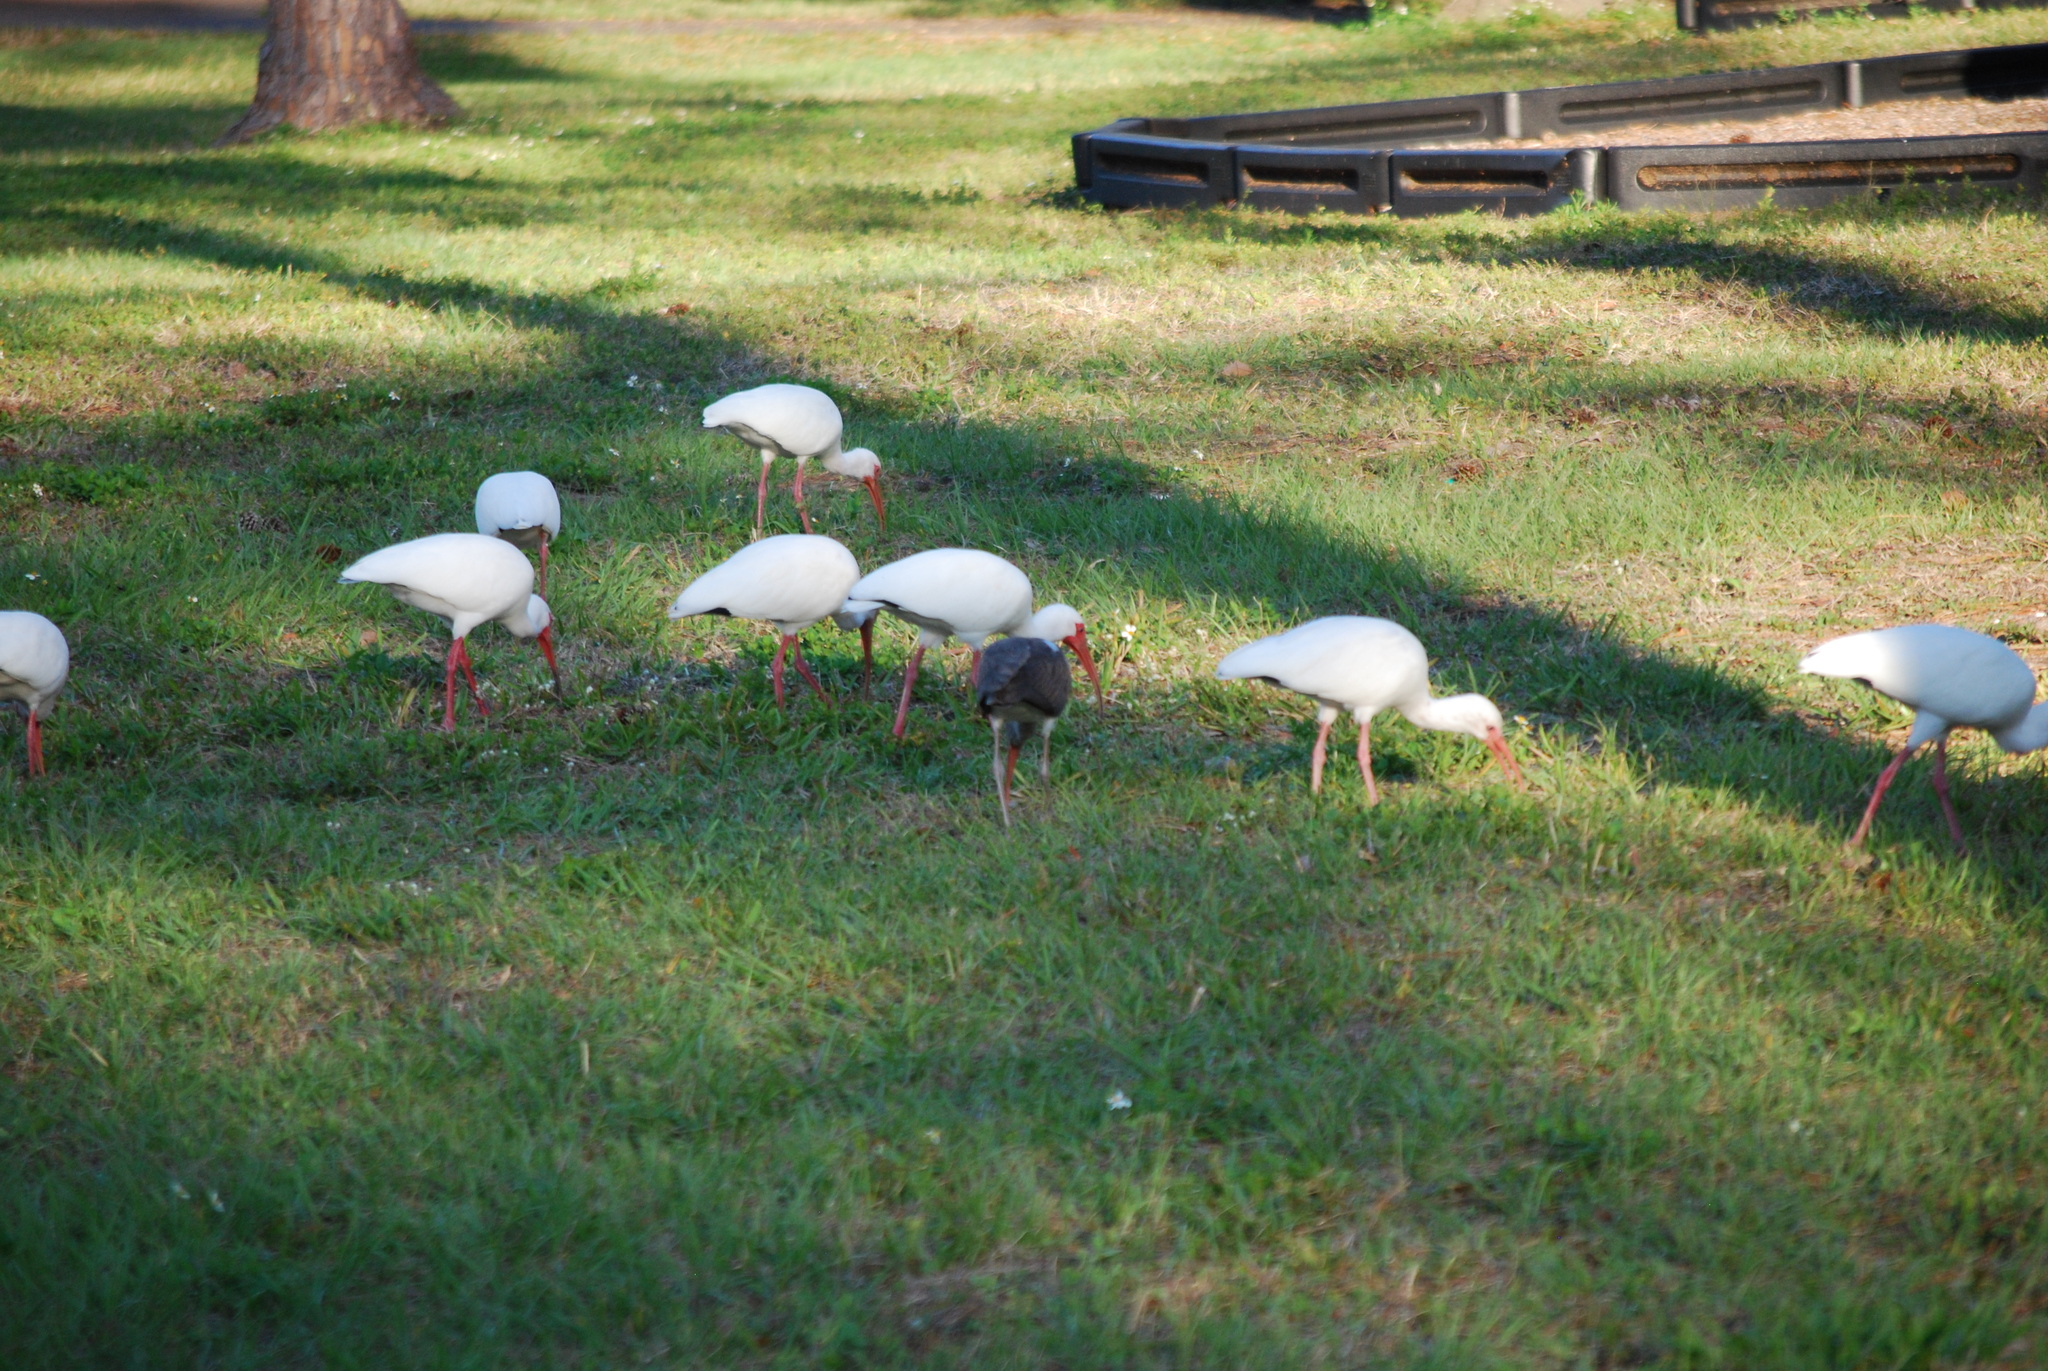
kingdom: Animalia
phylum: Chordata
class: Aves
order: Pelecaniformes
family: Threskiornithidae
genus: Eudocimus
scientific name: Eudocimus albus
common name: White ibis
